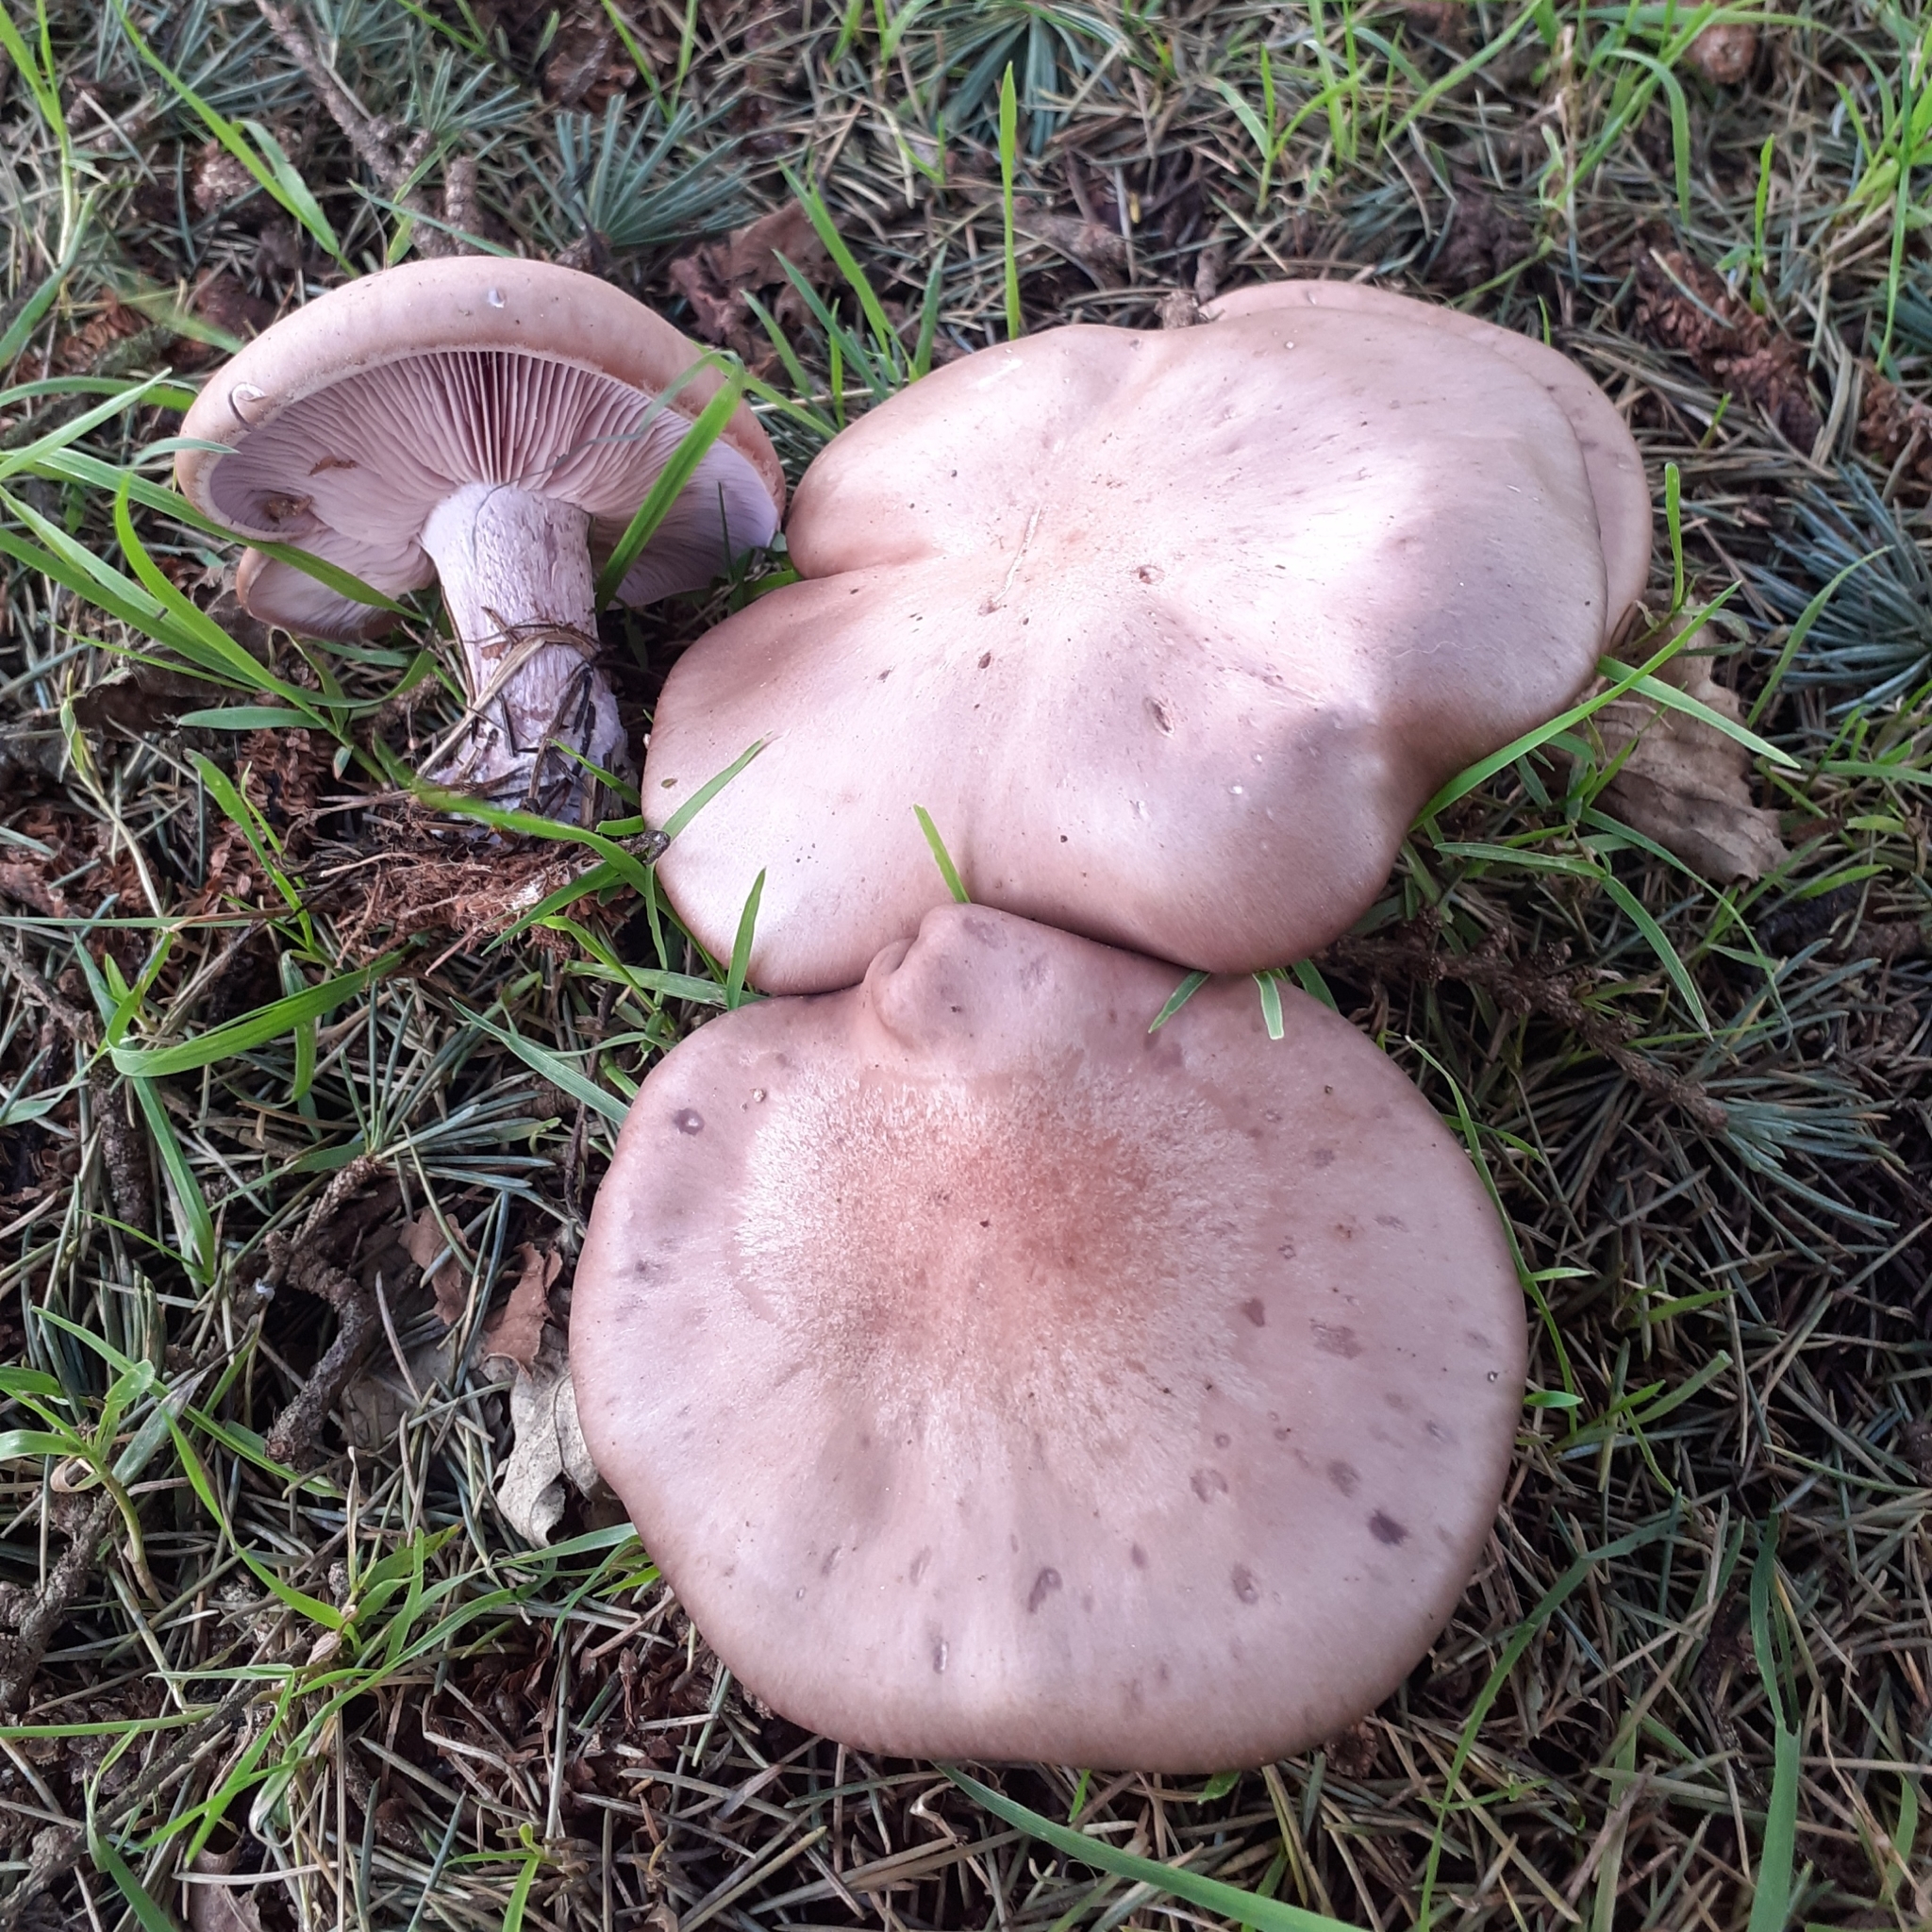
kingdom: Fungi
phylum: Basidiomycota
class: Agaricomycetes
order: Agaricales
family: Tricholomataceae
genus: Collybia
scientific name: Collybia
